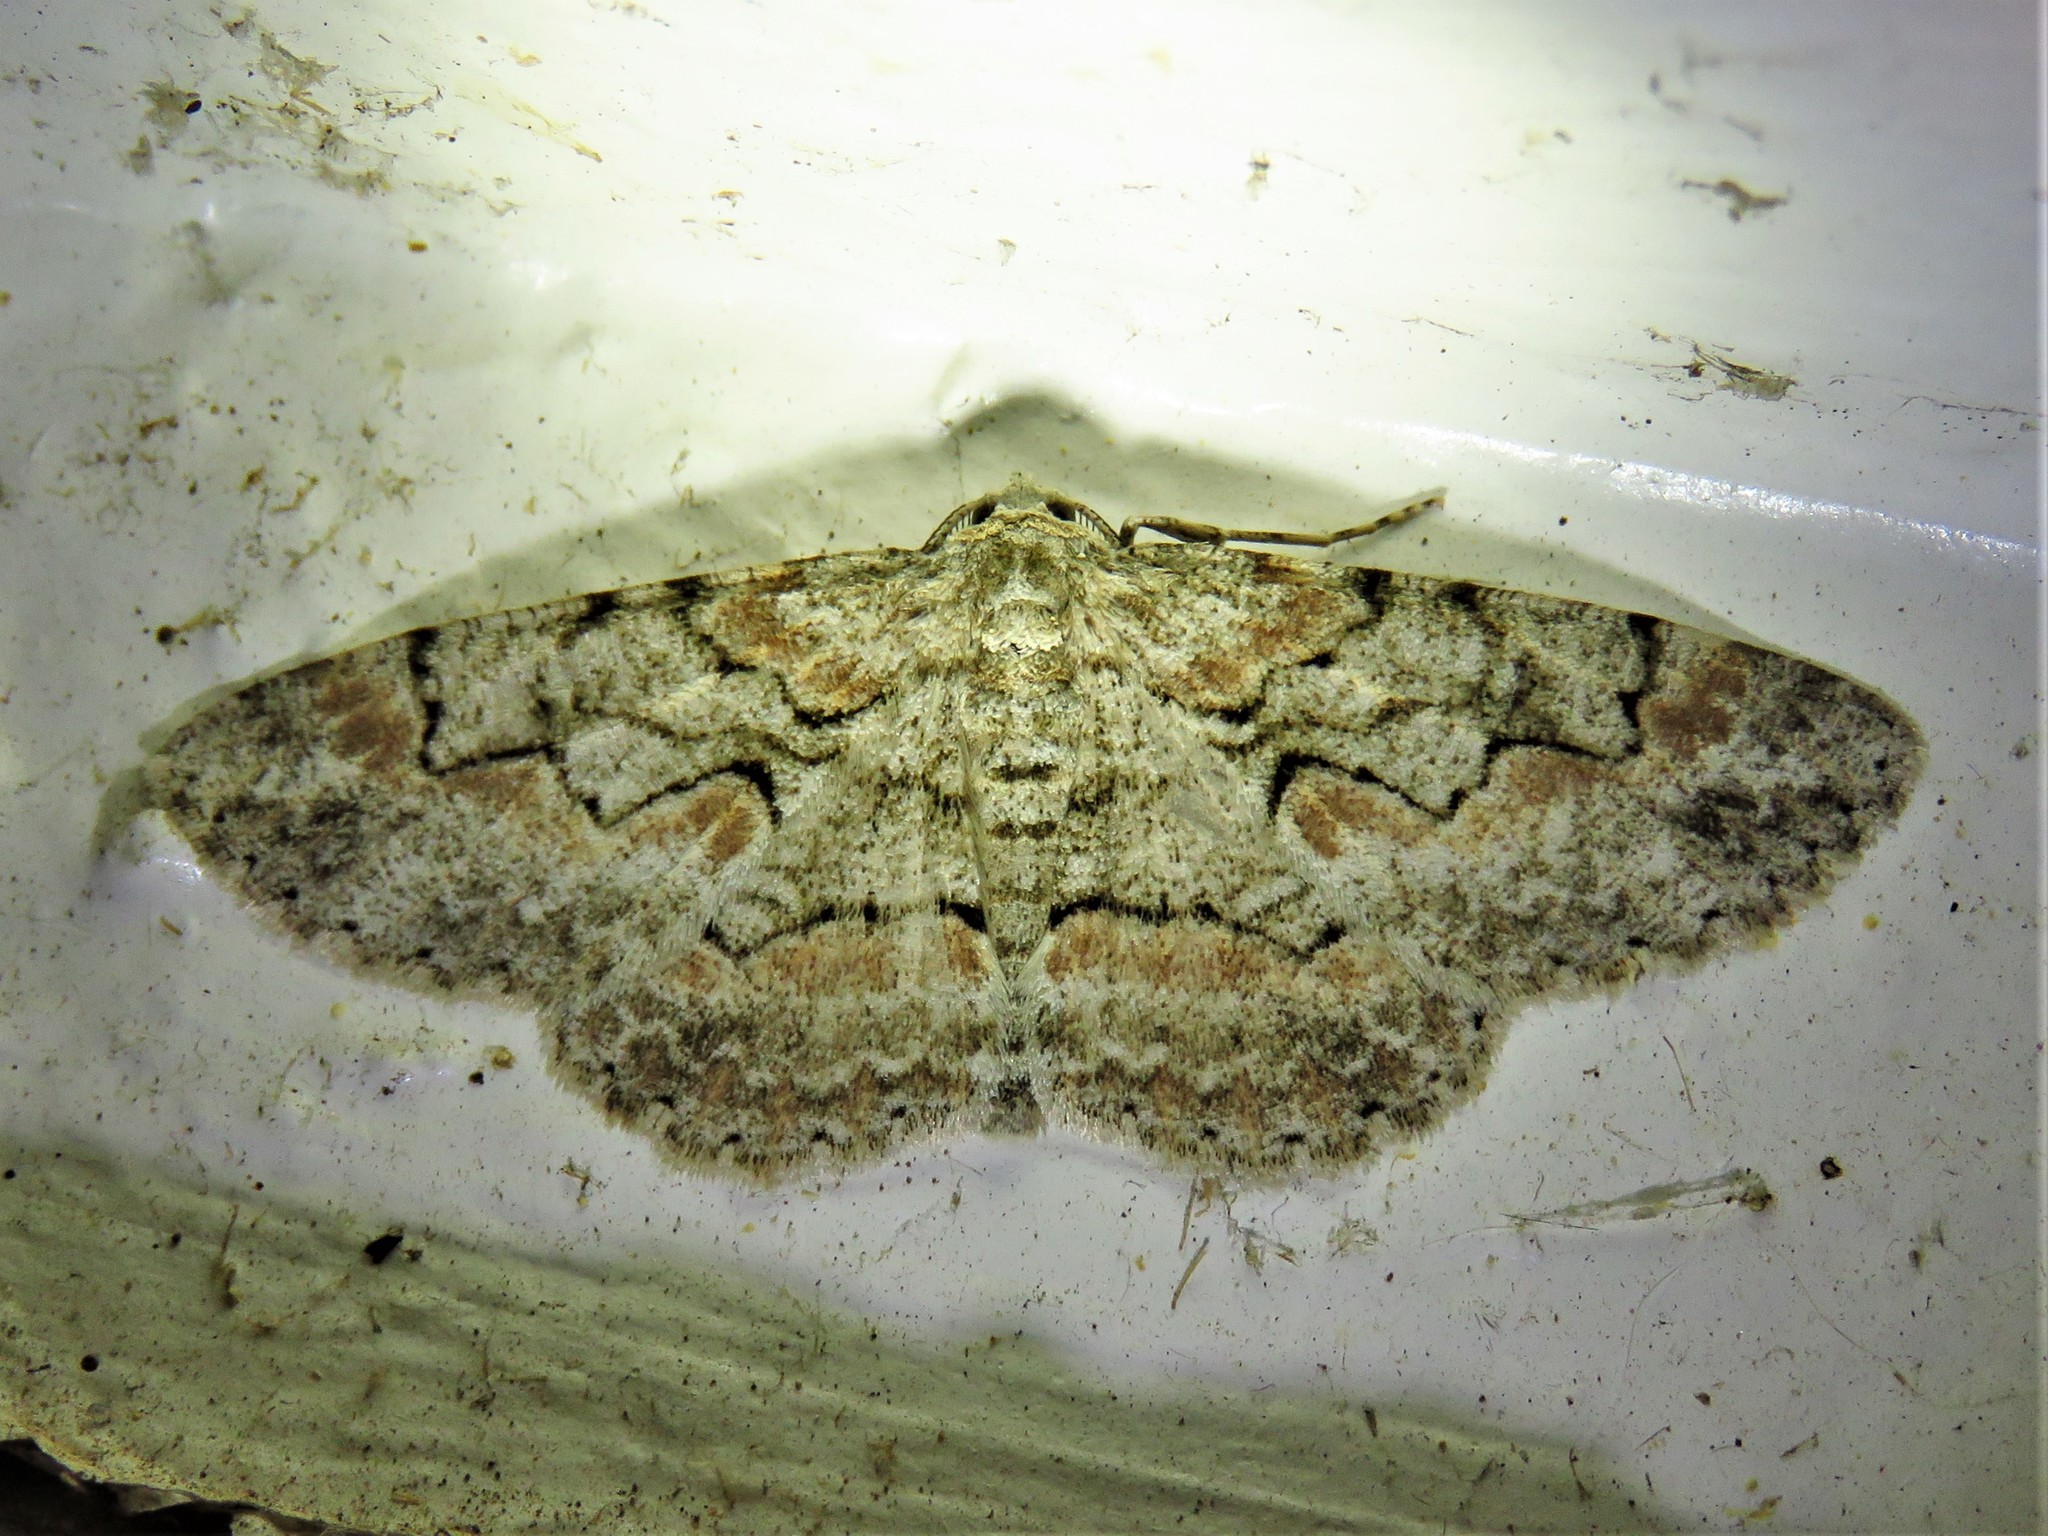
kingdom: Animalia
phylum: Arthropoda
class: Insecta
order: Lepidoptera
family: Geometridae
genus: Iridopsis
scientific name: Iridopsis defectaria
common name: Brown-shaded gray
